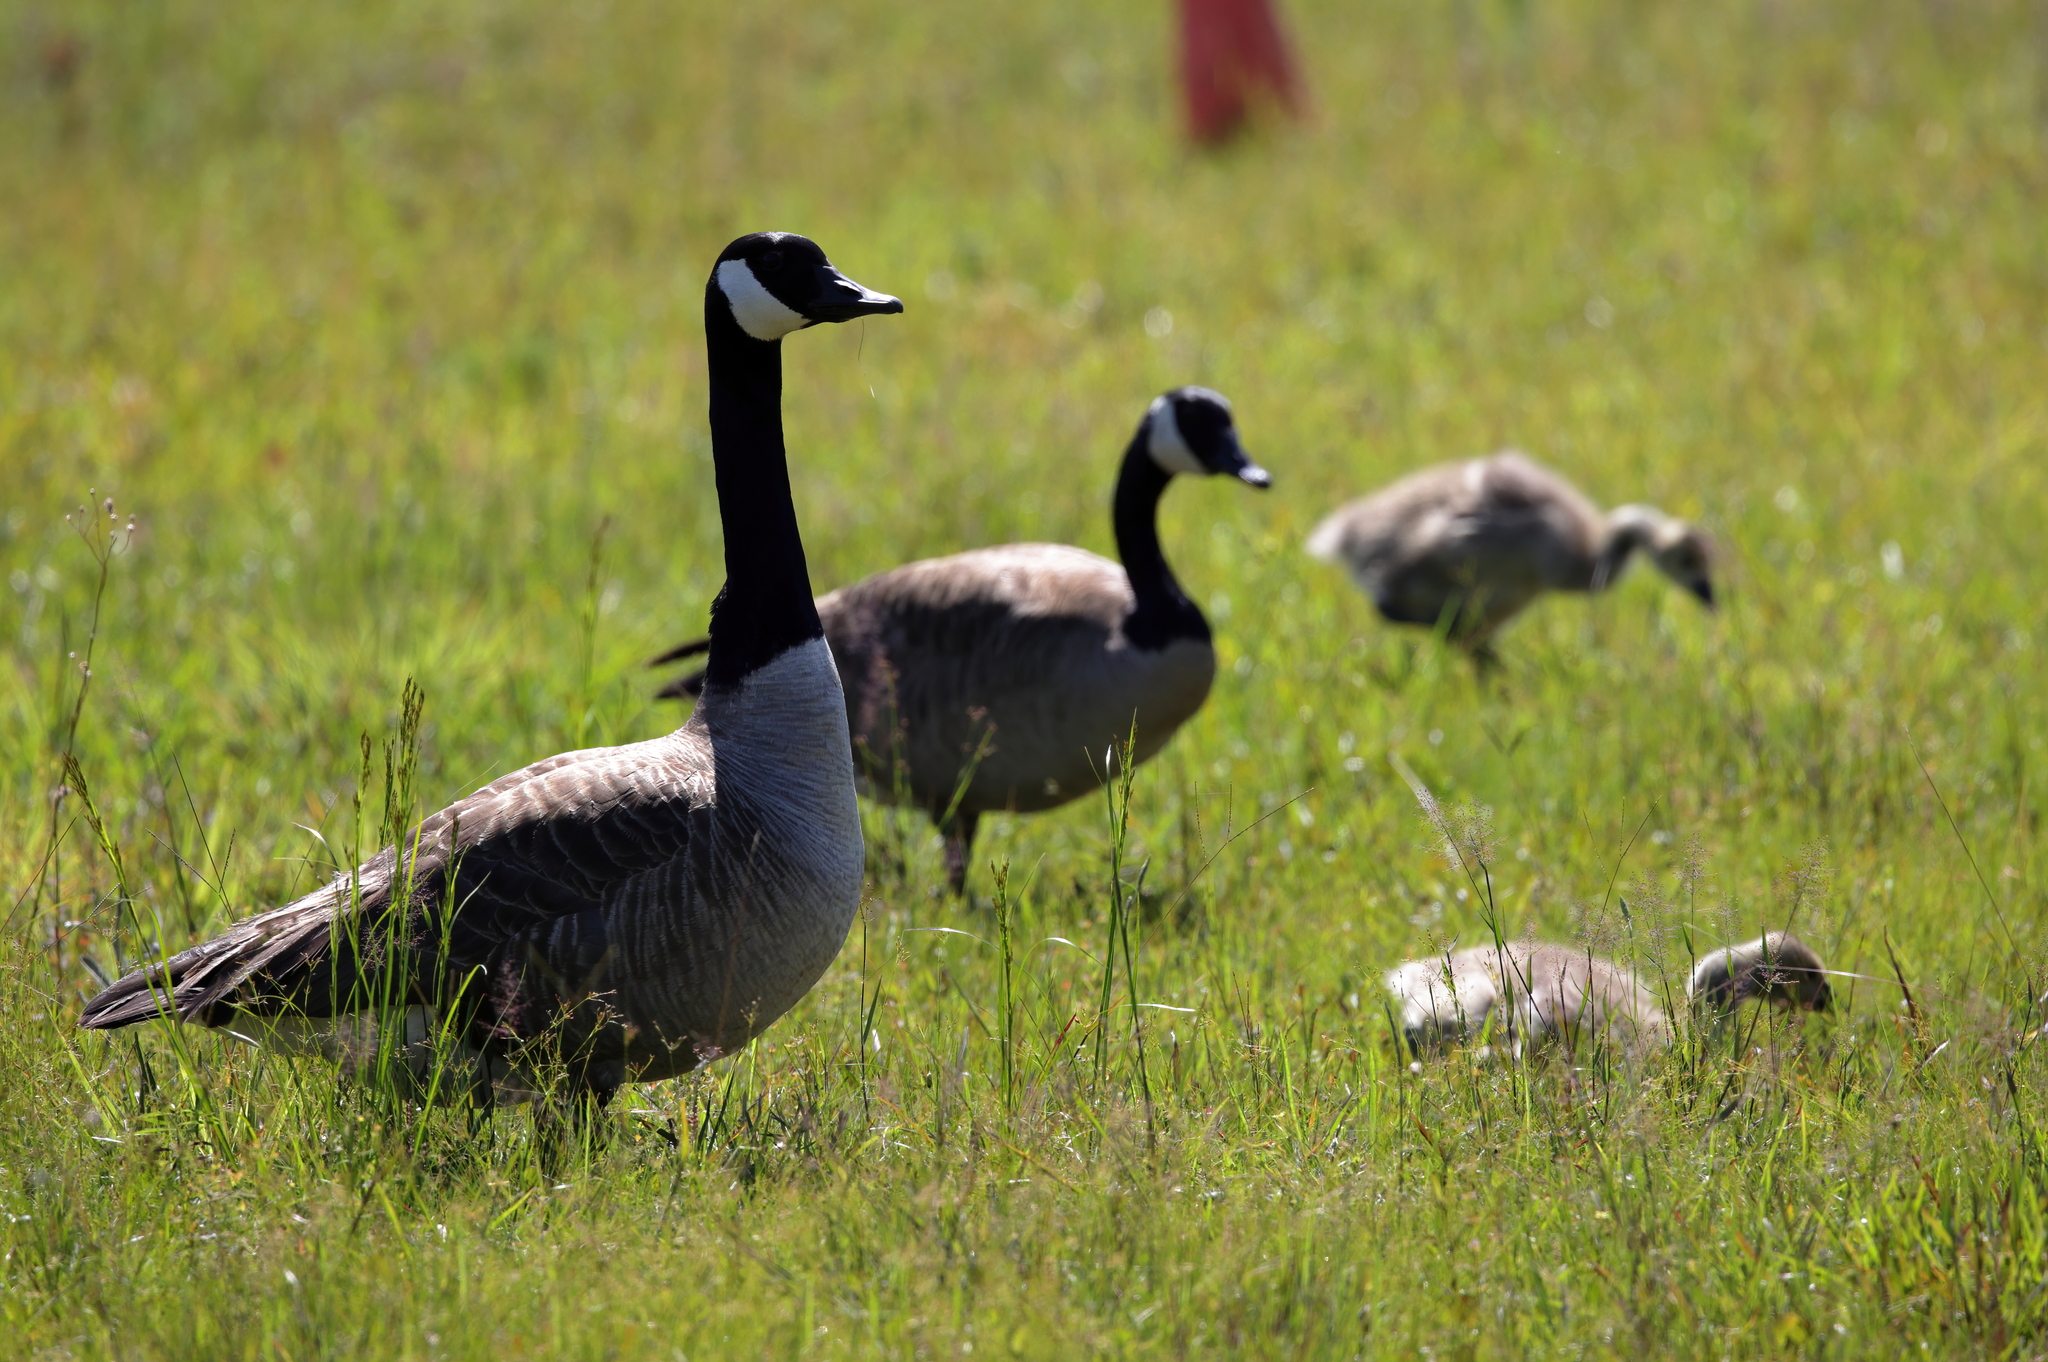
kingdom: Animalia
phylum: Chordata
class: Aves
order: Anseriformes
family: Anatidae
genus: Branta
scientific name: Branta canadensis
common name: Canada goose
